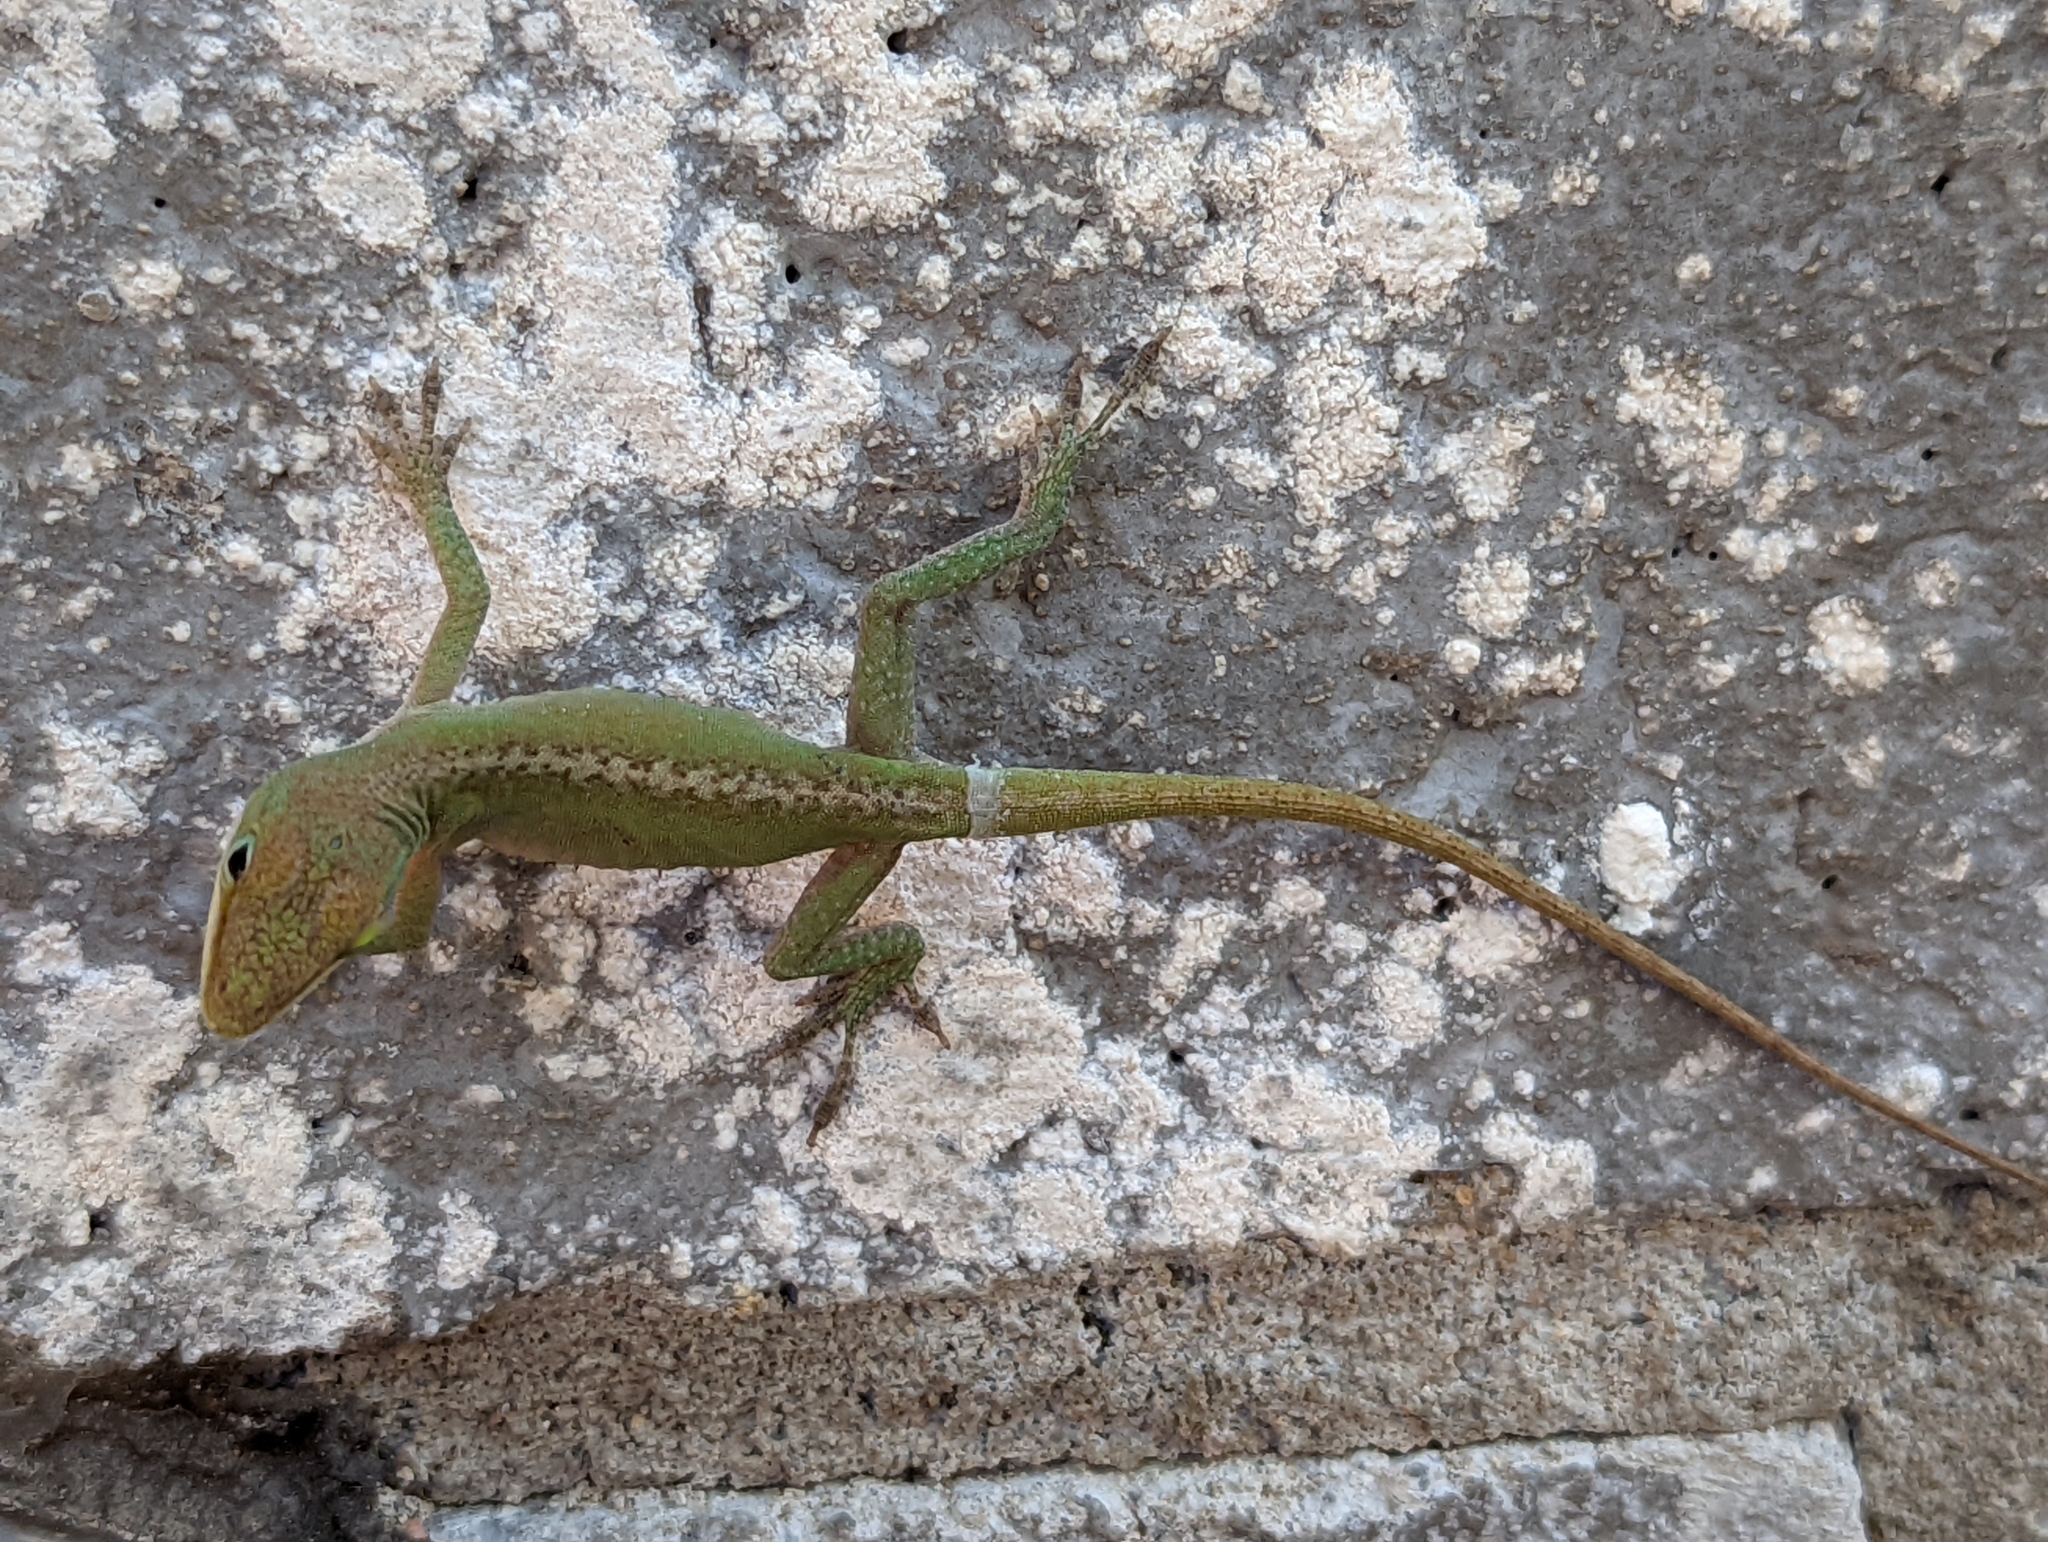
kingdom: Animalia
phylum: Chordata
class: Squamata
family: Dactyloidae
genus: Anolis
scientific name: Anolis carolinensis
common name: Green anole
